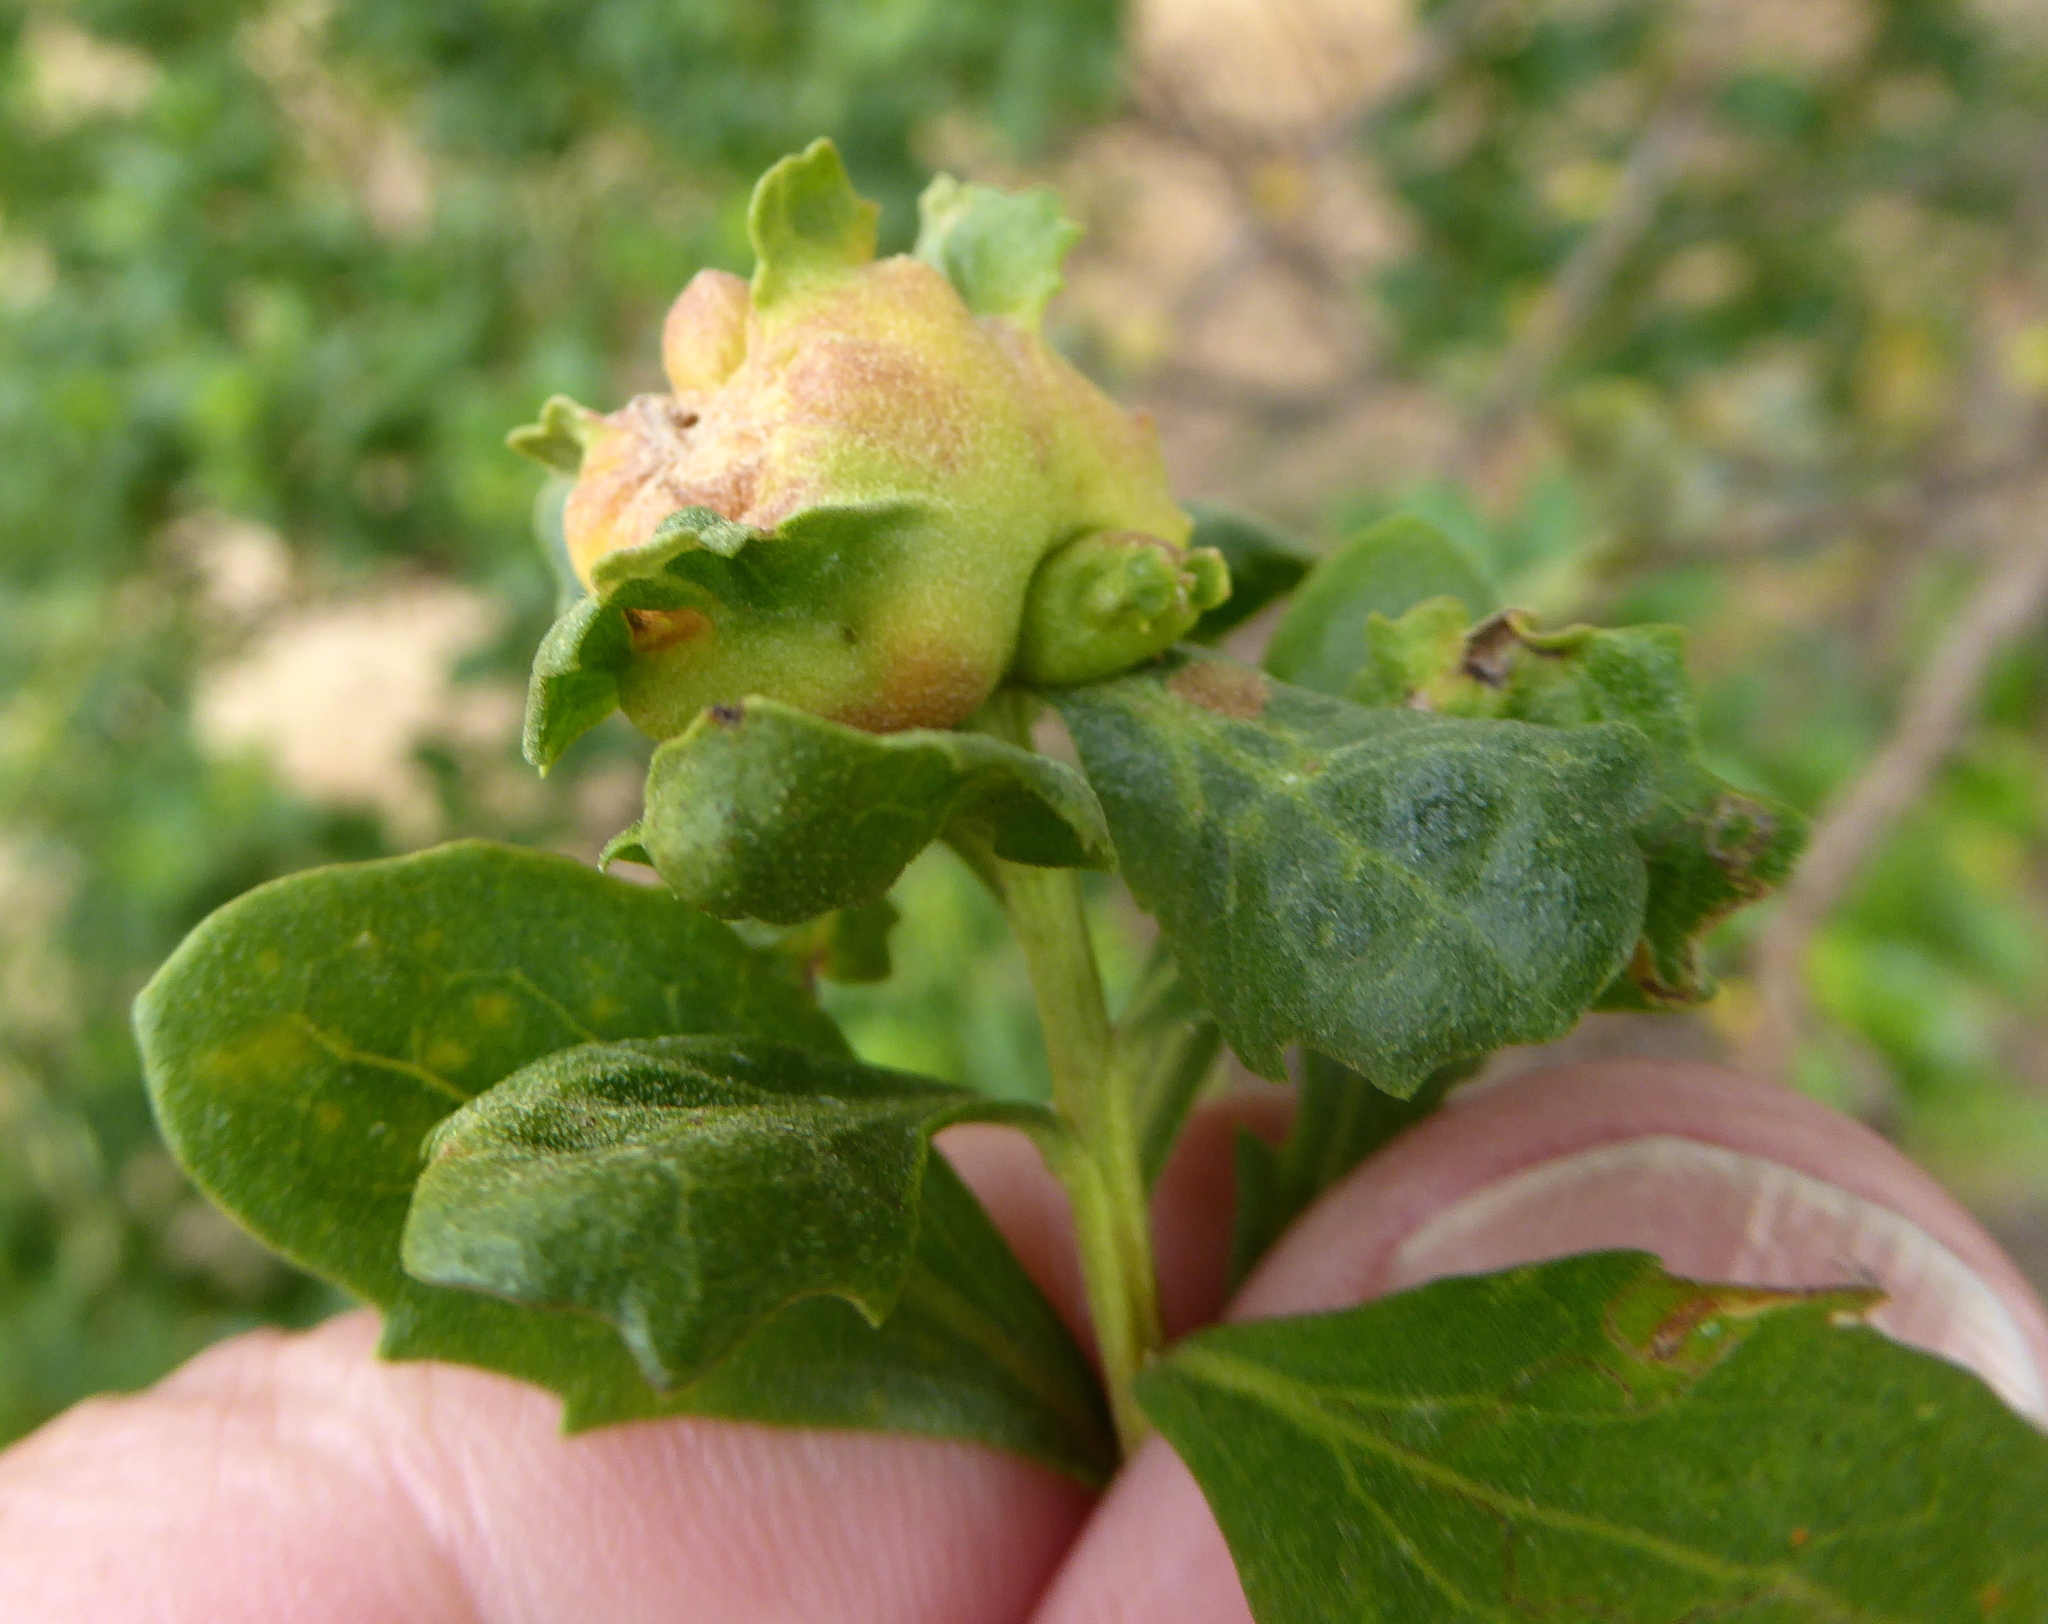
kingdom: Animalia
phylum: Arthropoda
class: Insecta
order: Diptera
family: Cecidomyiidae
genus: Rhopalomyia
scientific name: Rhopalomyia californica
